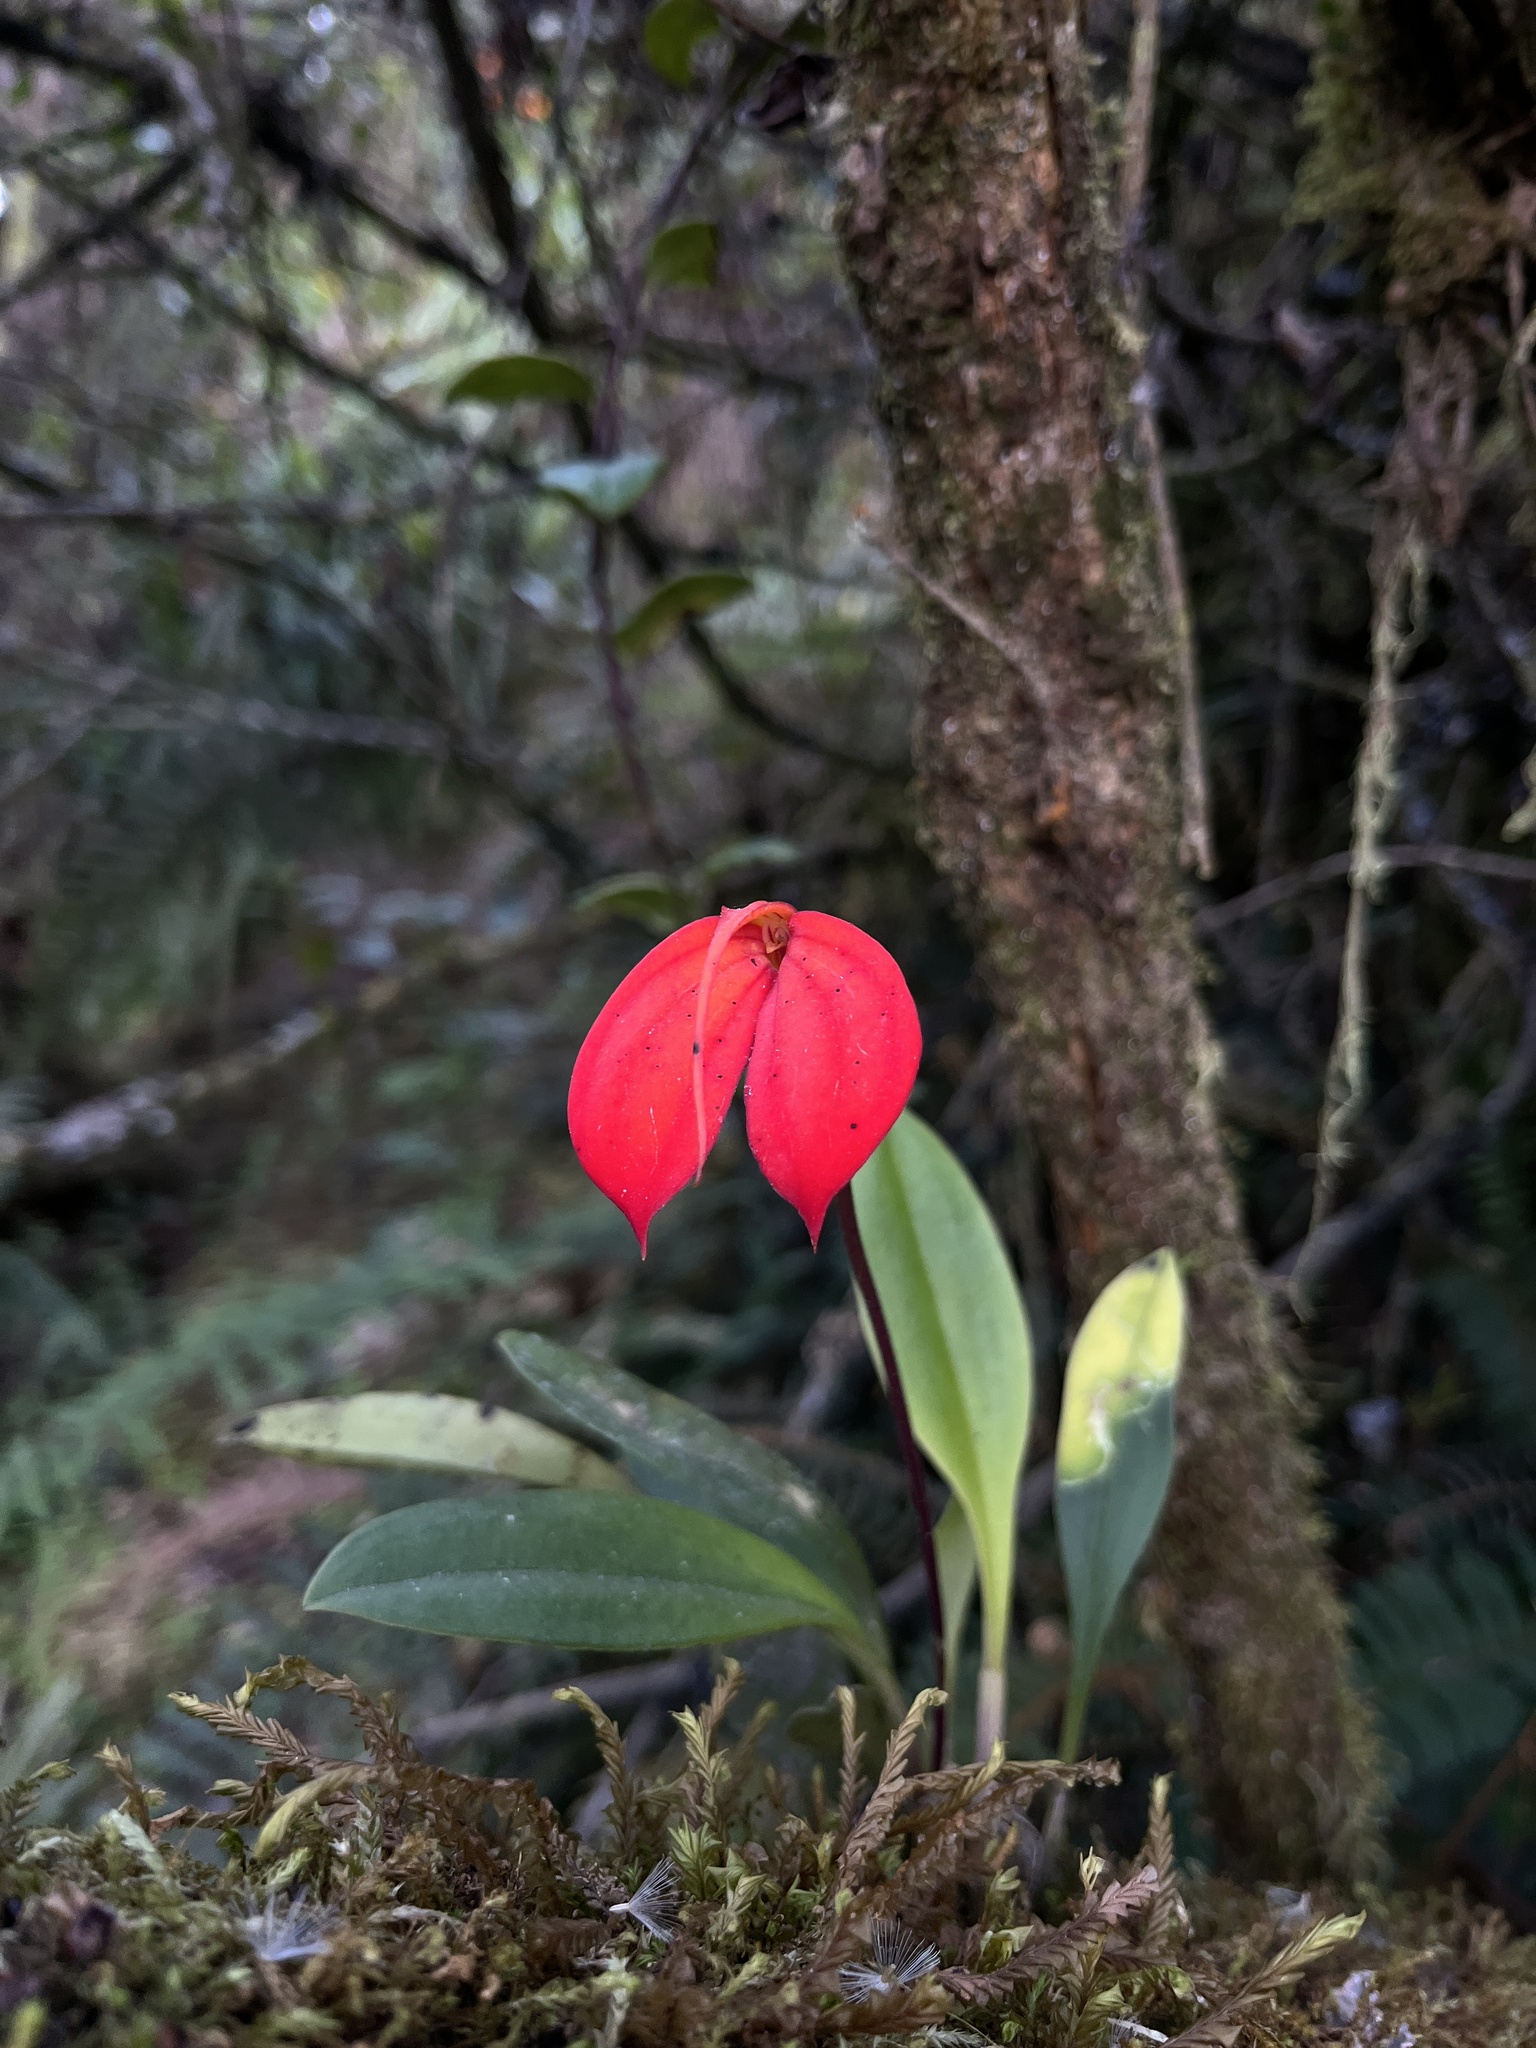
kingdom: Plantae
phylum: Tracheophyta
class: Liliopsida
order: Asparagales
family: Orchidaceae
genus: Masdevallia
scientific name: Masdevallia ignea
